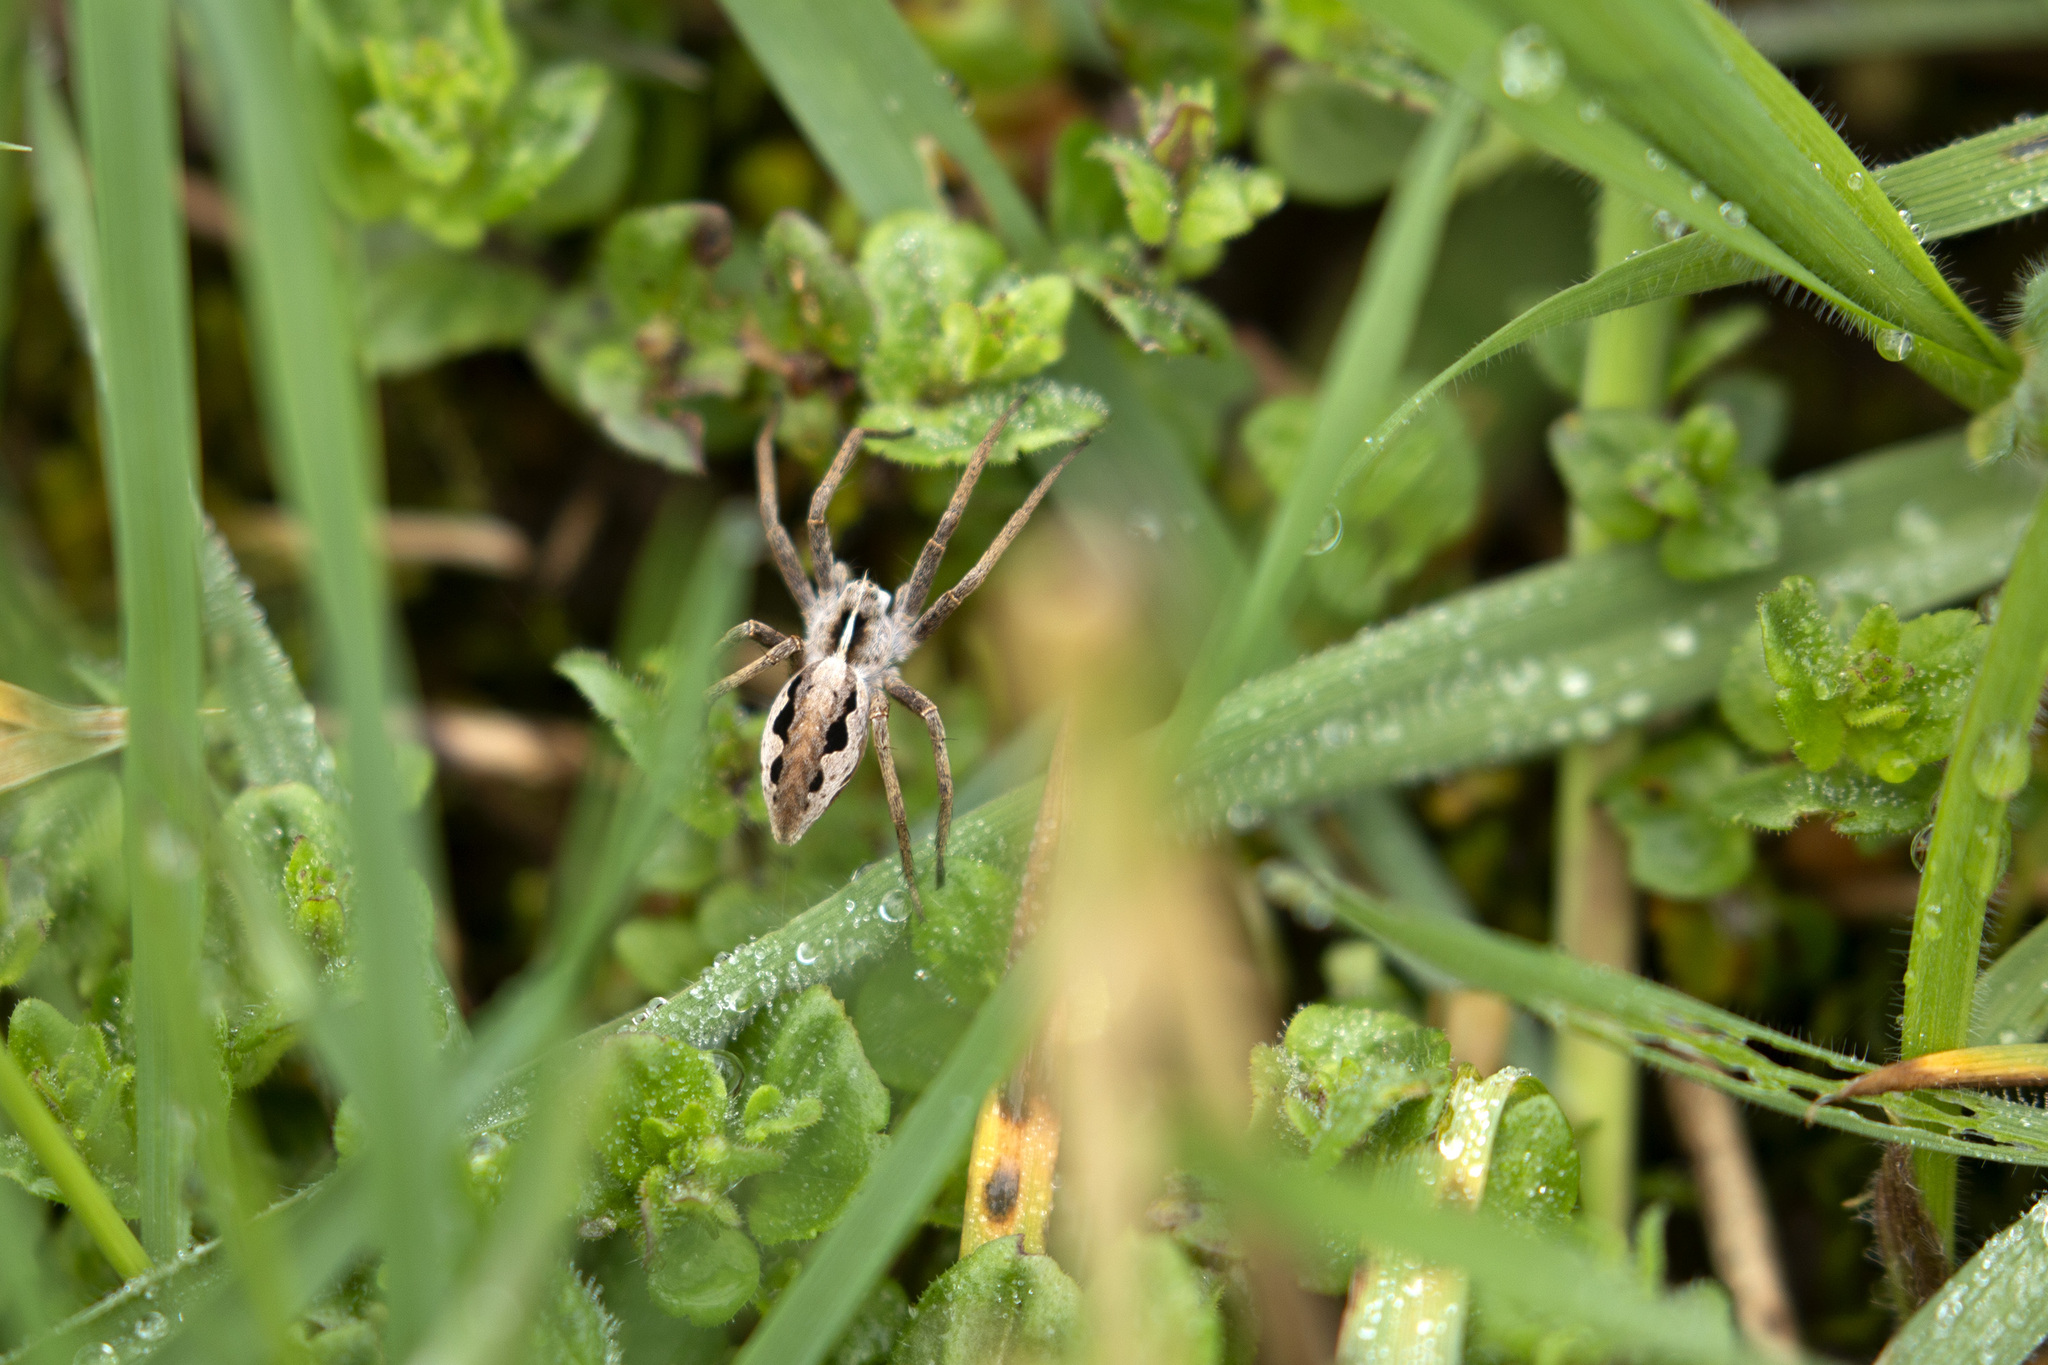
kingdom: Animalia
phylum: Arthropoda
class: Arachnida
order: Araneae
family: Pisauridae
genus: Pisaura
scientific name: Pisaura mirabilis
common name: Tent spider
